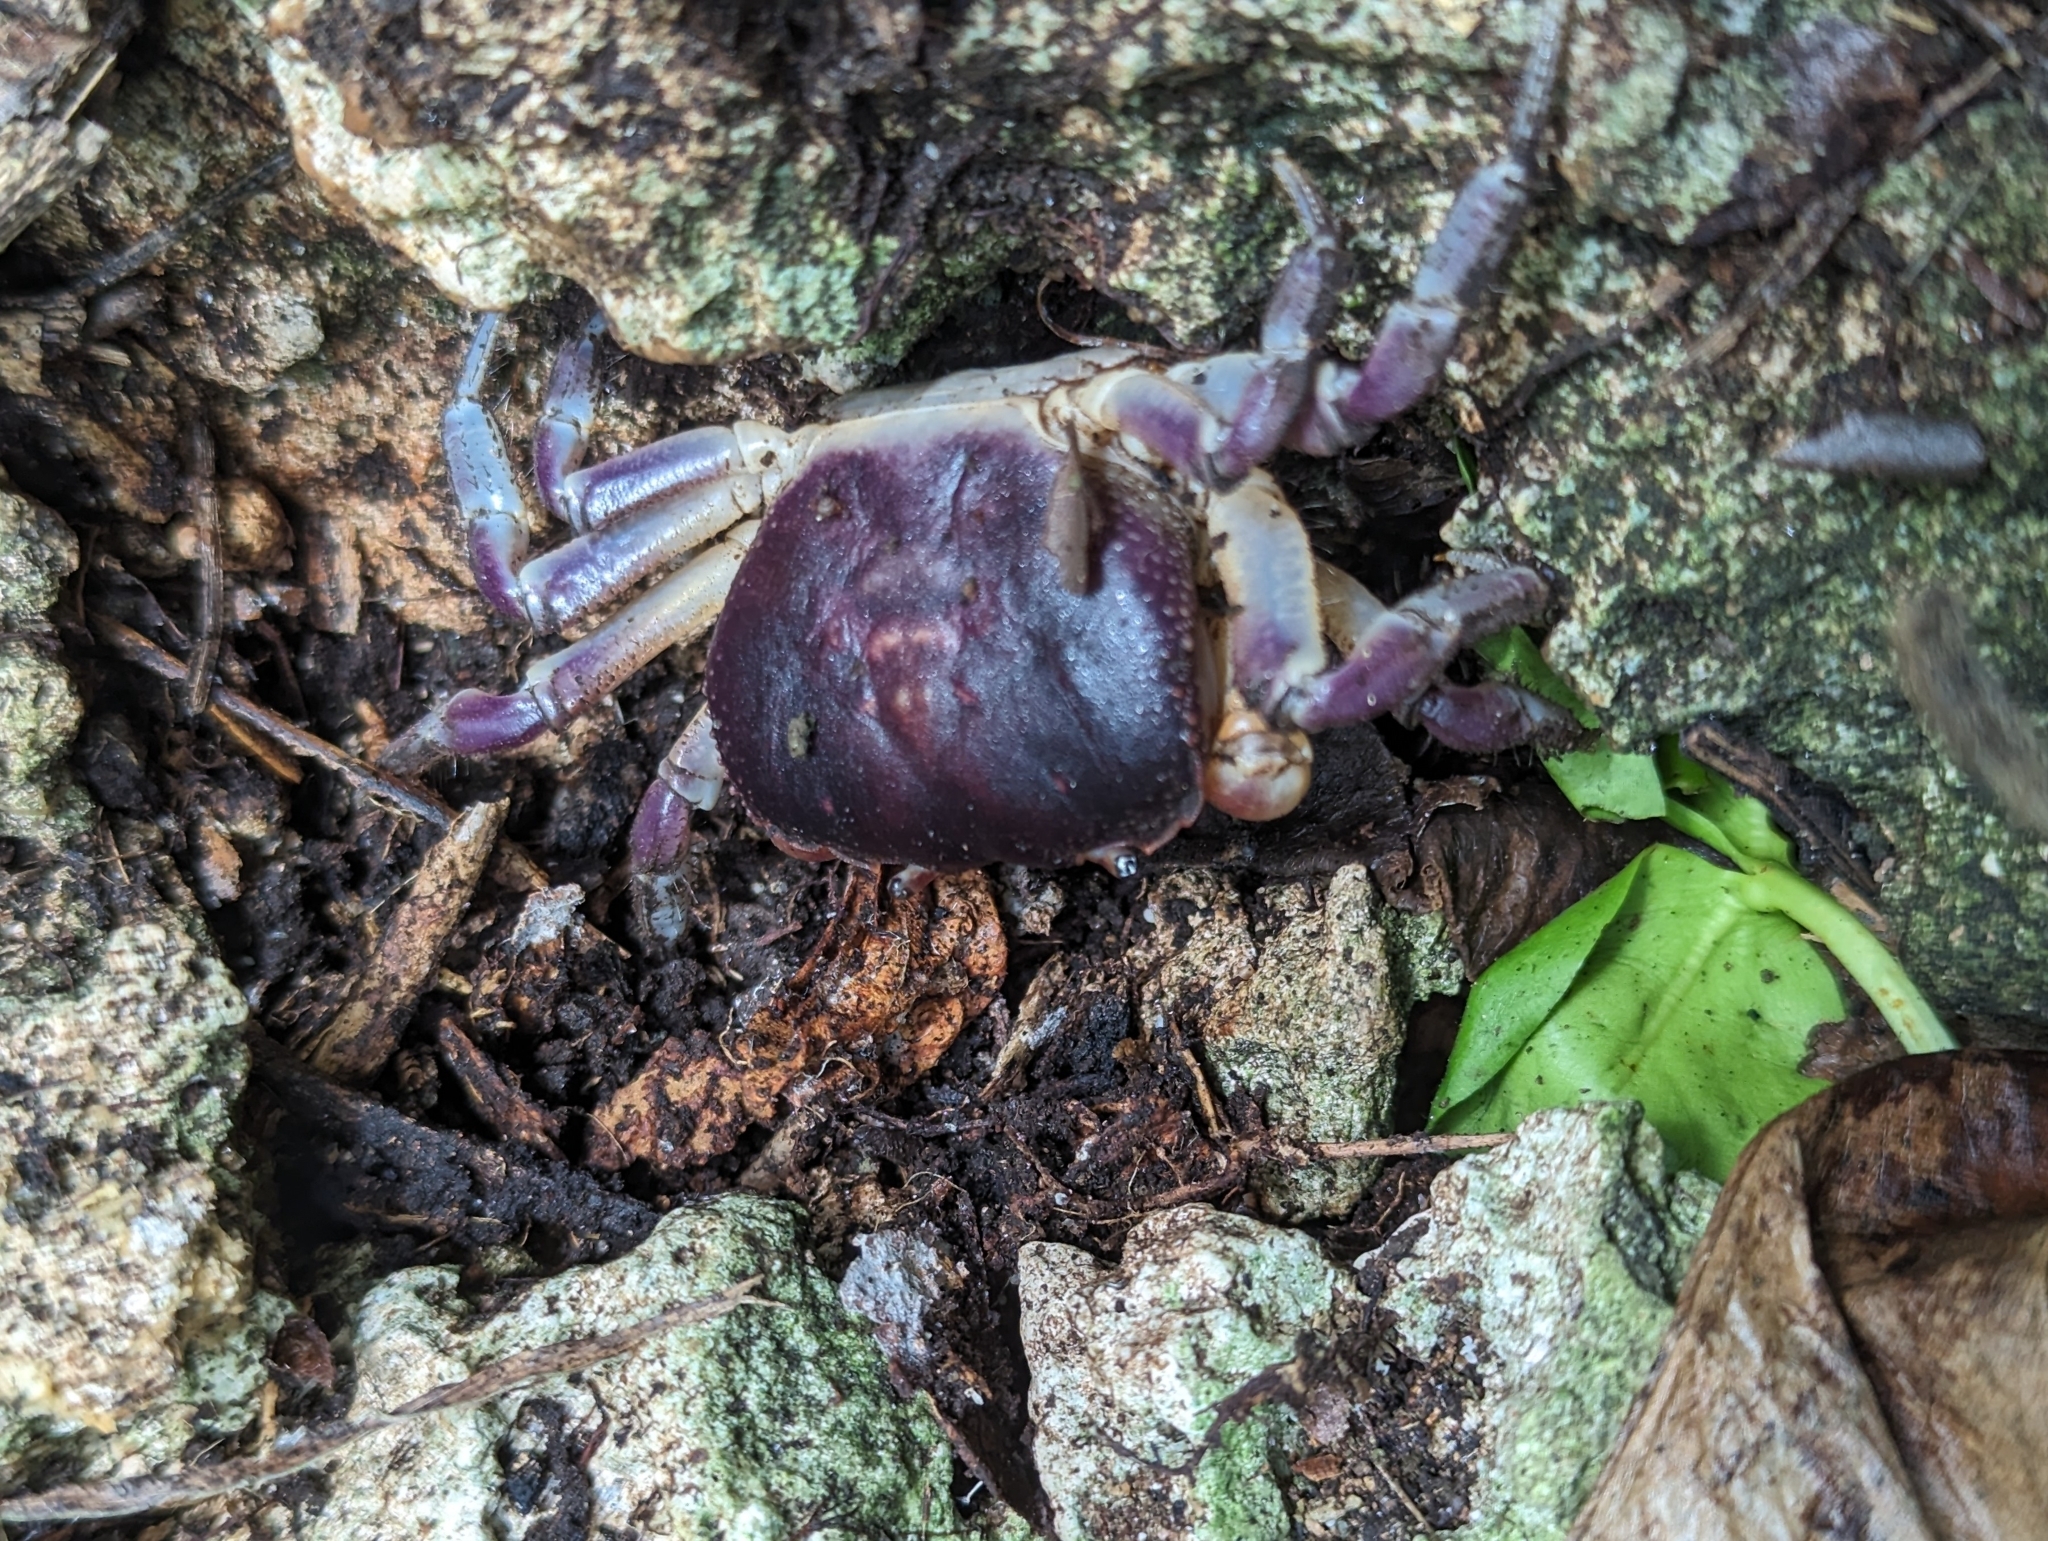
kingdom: Animalia
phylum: Arthropoda
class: Malacostraca
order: Decapoda
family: Gecarcinidae
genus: Epigrapsus
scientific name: Epigrapsus notatus
